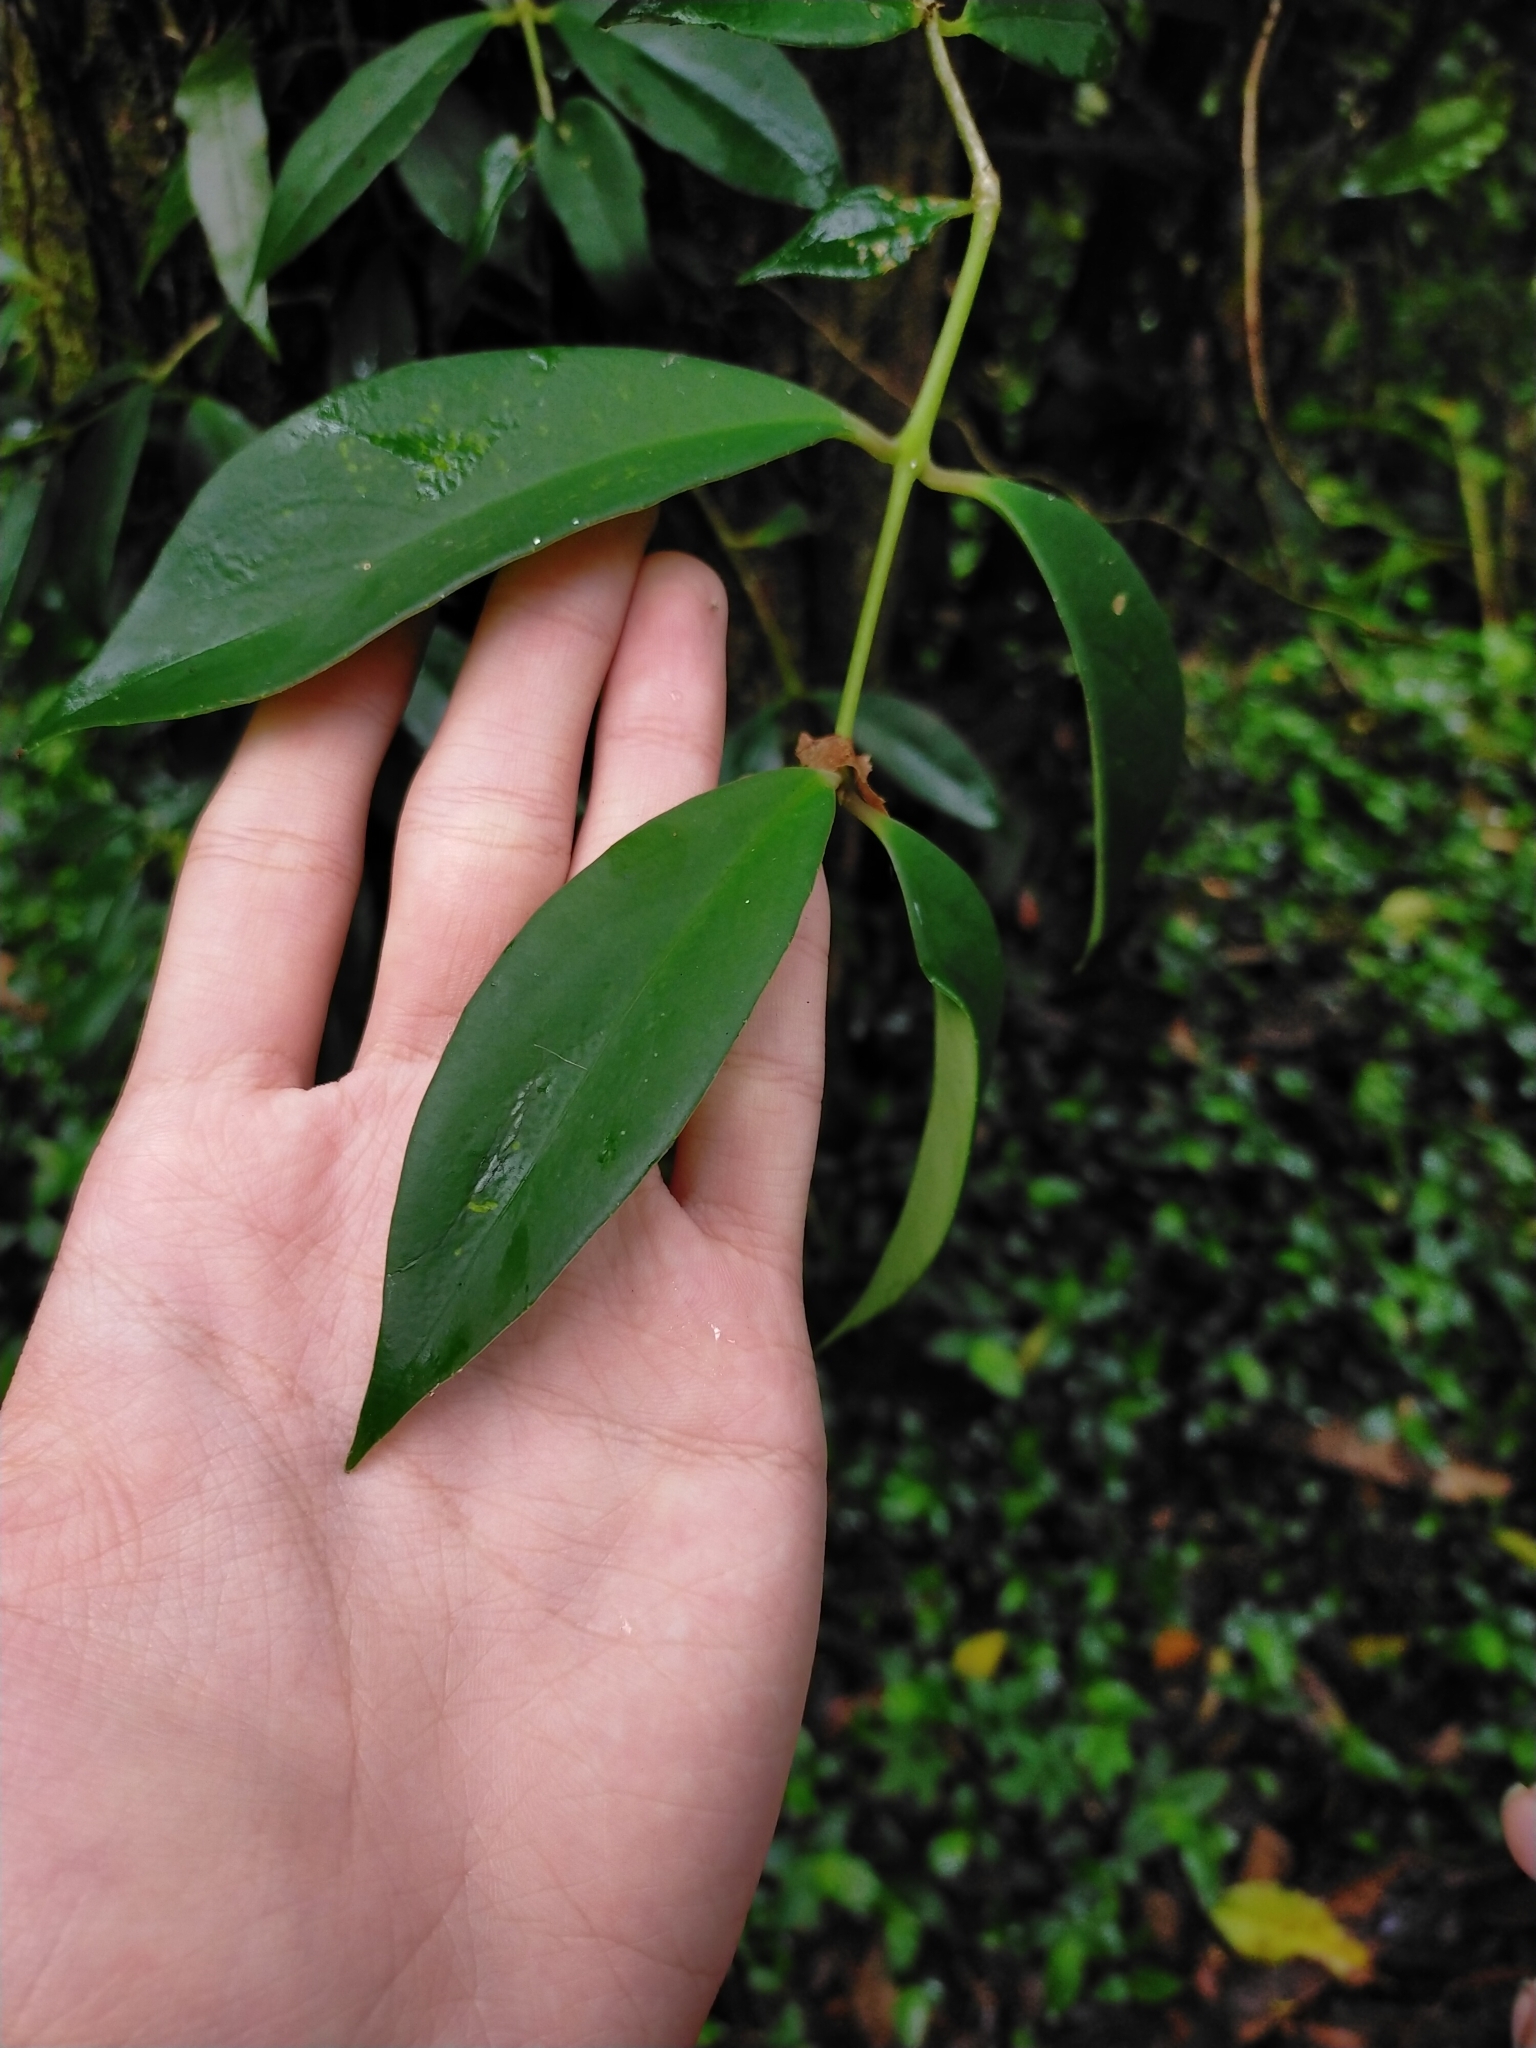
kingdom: Plantae
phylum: Tracheophyta
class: Magnoliopsida
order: Lamiales
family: Gesneriaceae
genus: Aeschynanthus
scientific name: Aeschynanthus acuminatus
